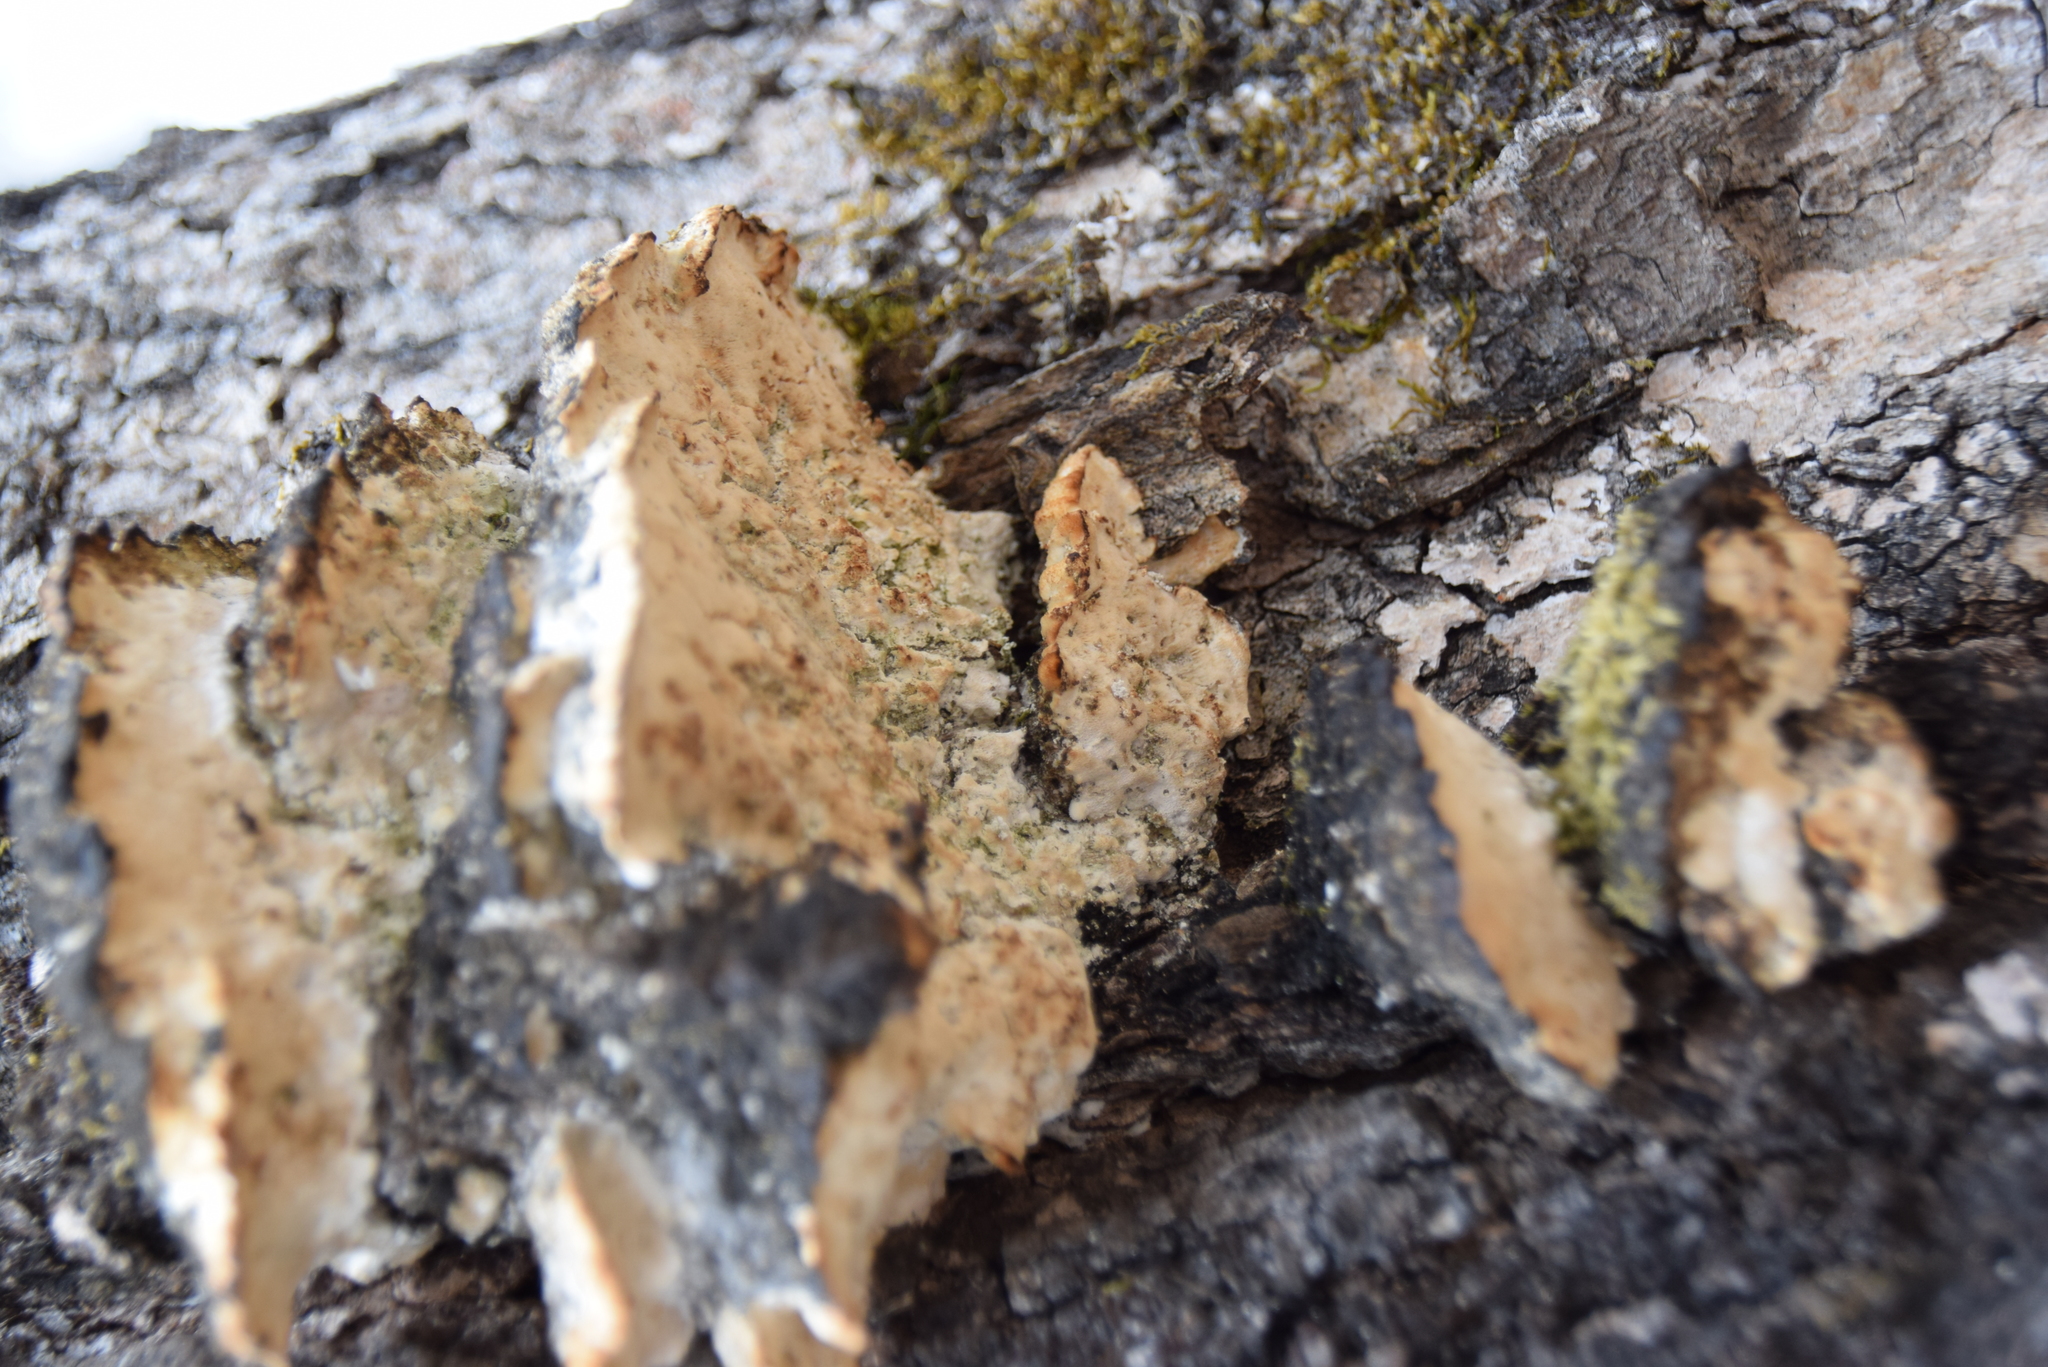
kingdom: Fungi
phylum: Basidiomycota
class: Agaricomycetes
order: Hymenochaetales
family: Oxyporaceae
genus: Oxyporus
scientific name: Oxyporus populinus
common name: Poplar bracket
